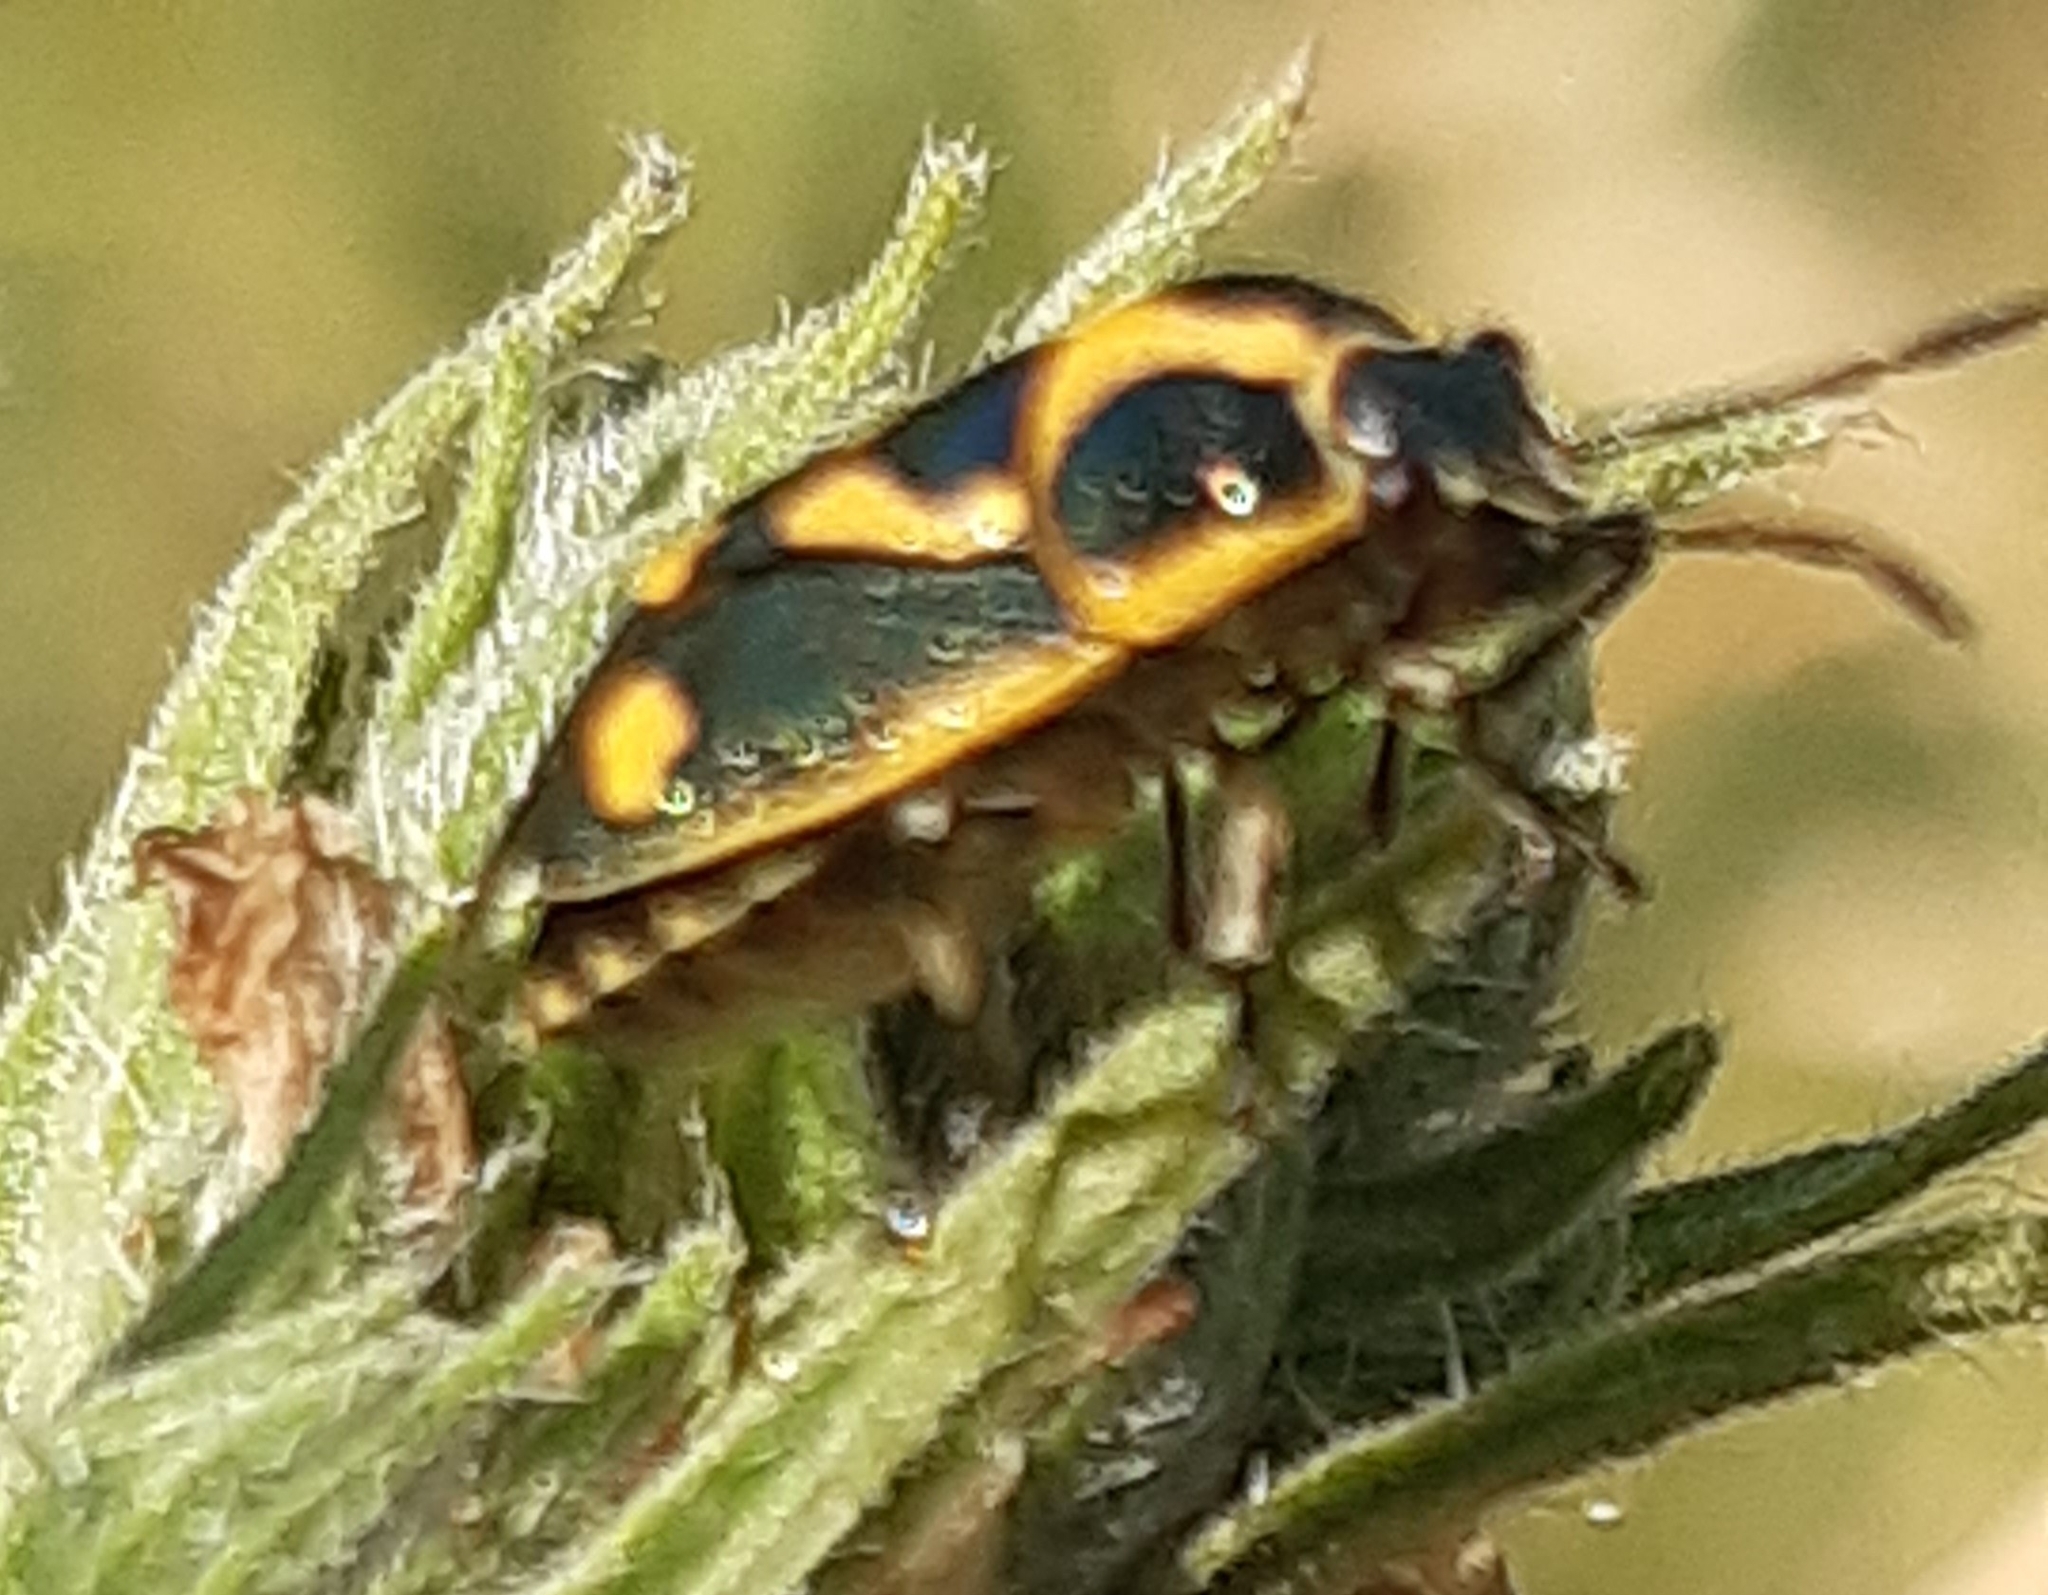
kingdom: Animalia
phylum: Arthropoda
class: Insecta
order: Hemiptera
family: Pentatomidae
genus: Eurydema
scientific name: Eurydema oleracea
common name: Cabbage bug
